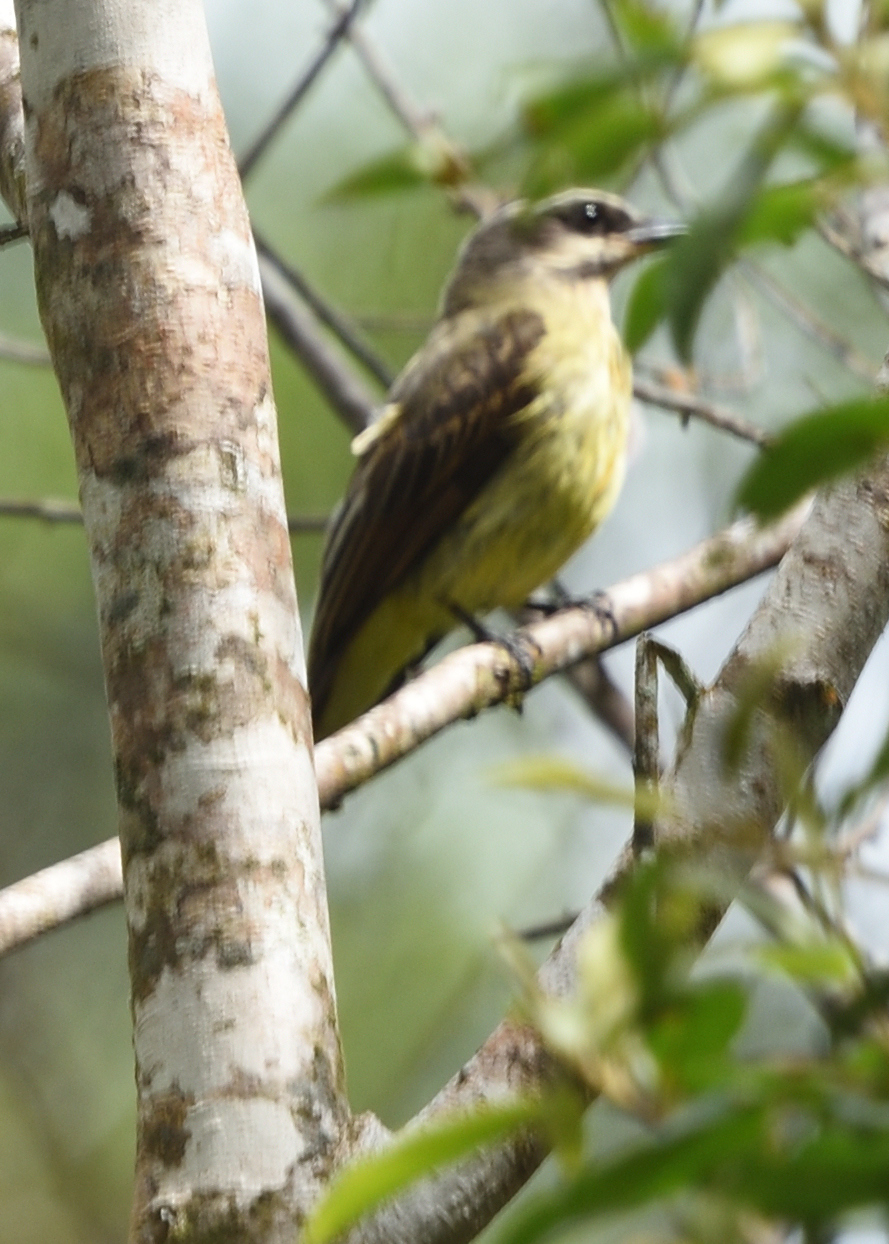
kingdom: Animalia
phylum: Chordata
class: Aves
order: Passeriformes
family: Tyrannidae
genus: Myiodynastes
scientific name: Myiodynastes hemichrysus
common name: Golden-bellied flycatcher
